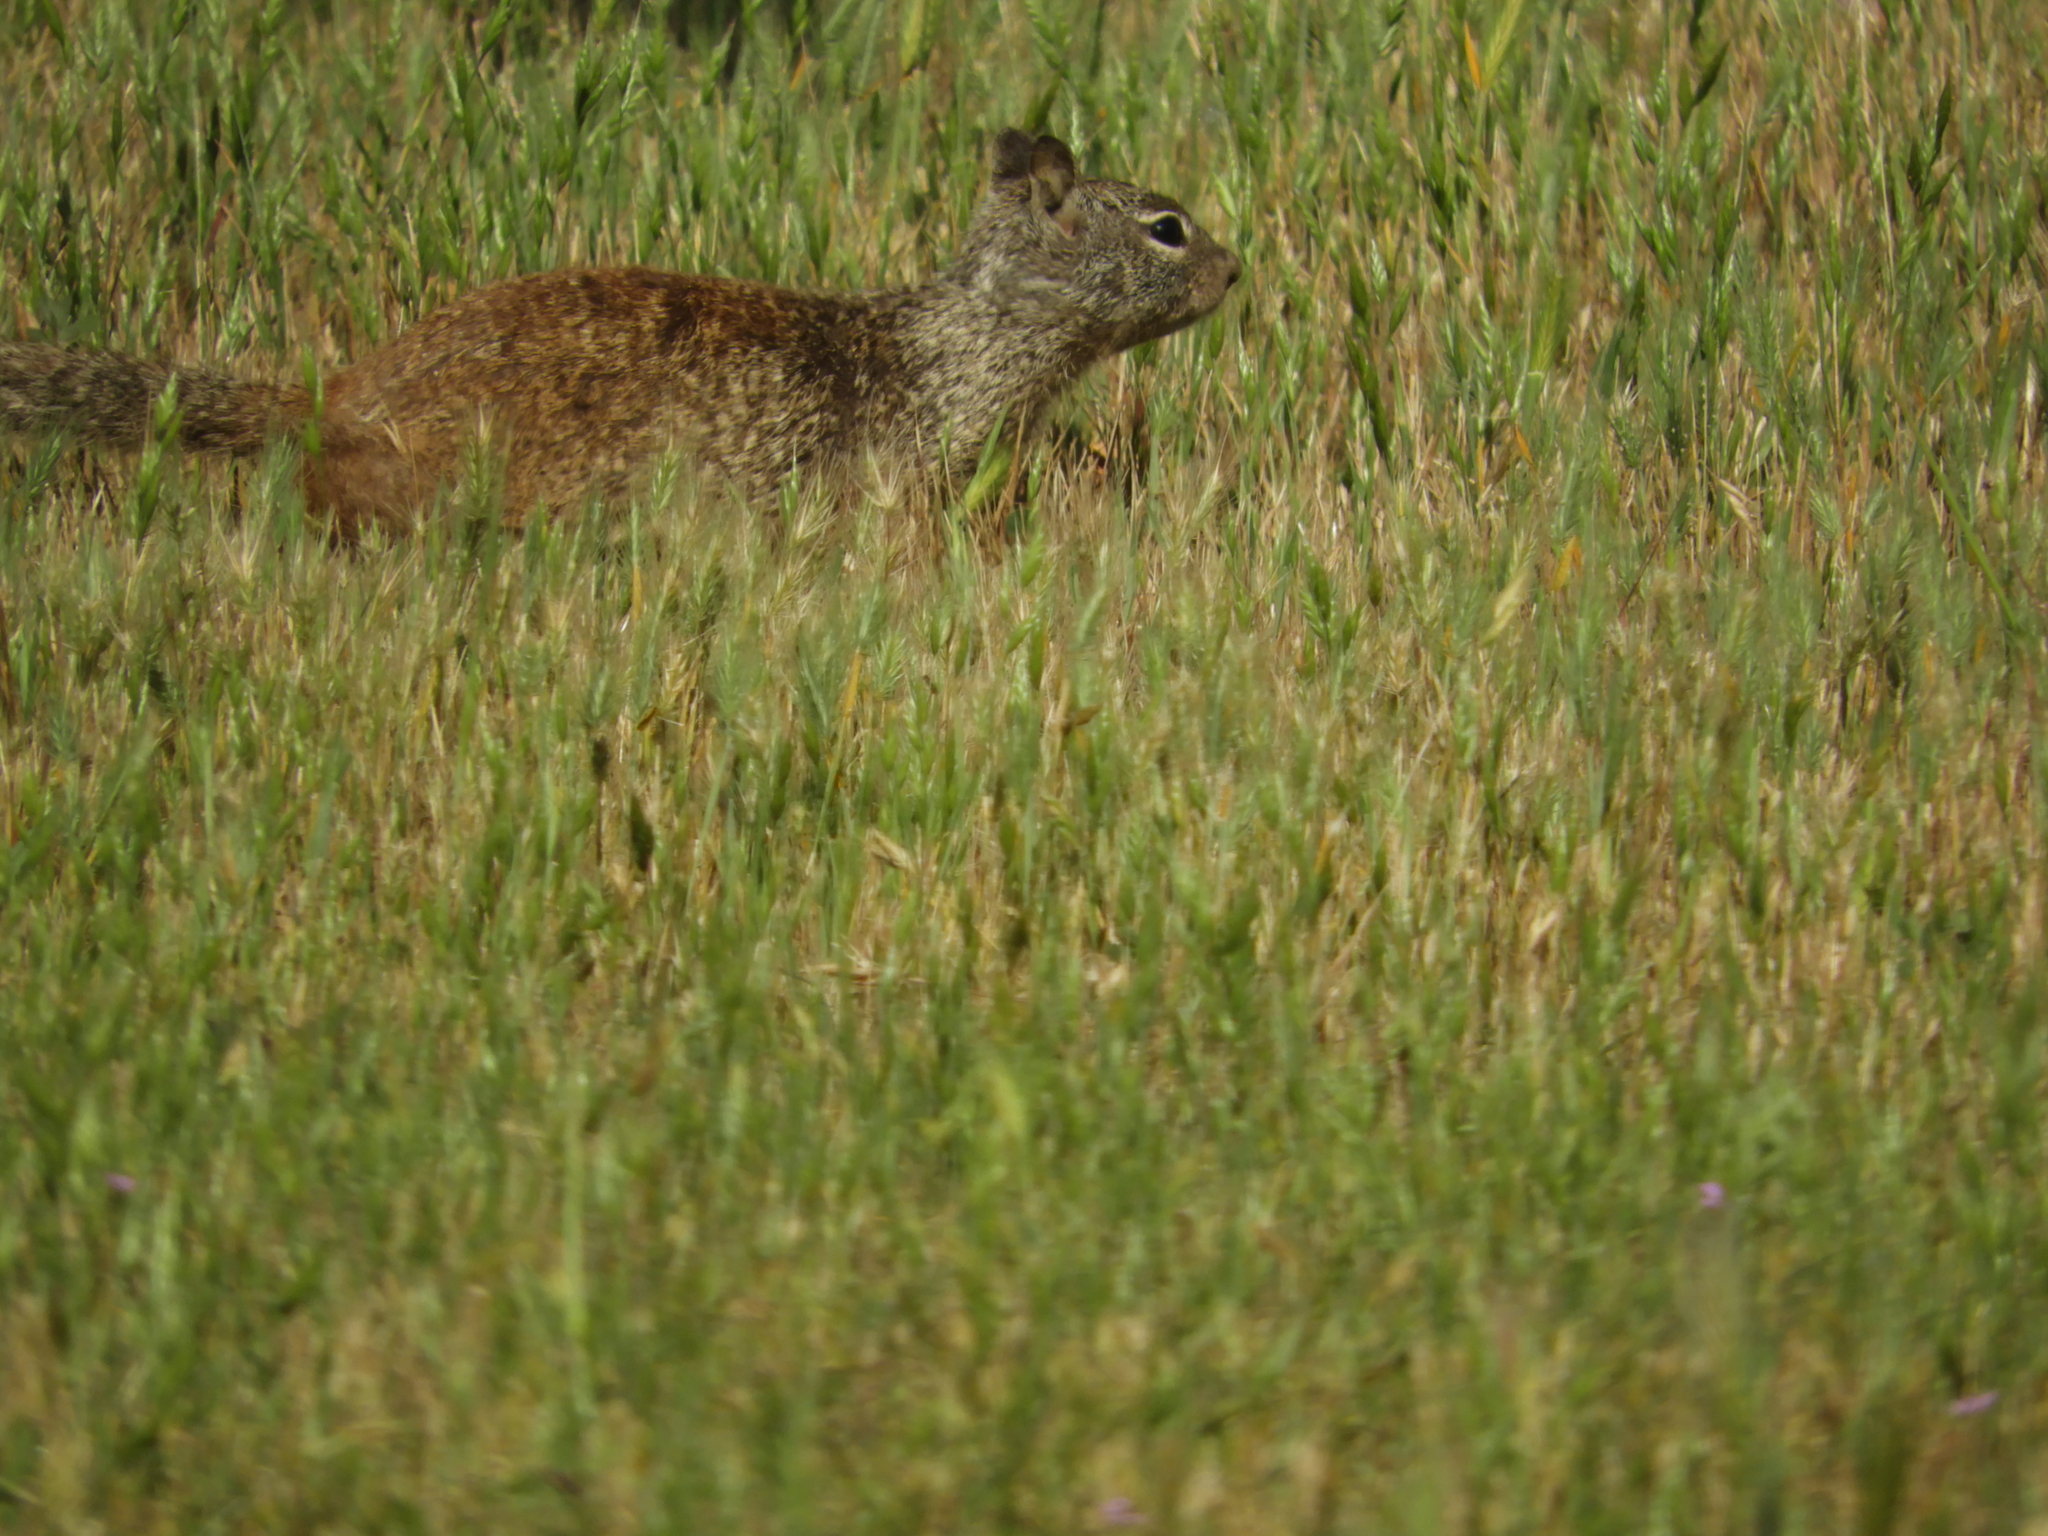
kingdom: Animalia
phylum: Chordata
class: Mammalia
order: Rodentia
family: Sciuridae
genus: Otospermophilus
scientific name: Otospermophilus beecheyi
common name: California ground squirrel
